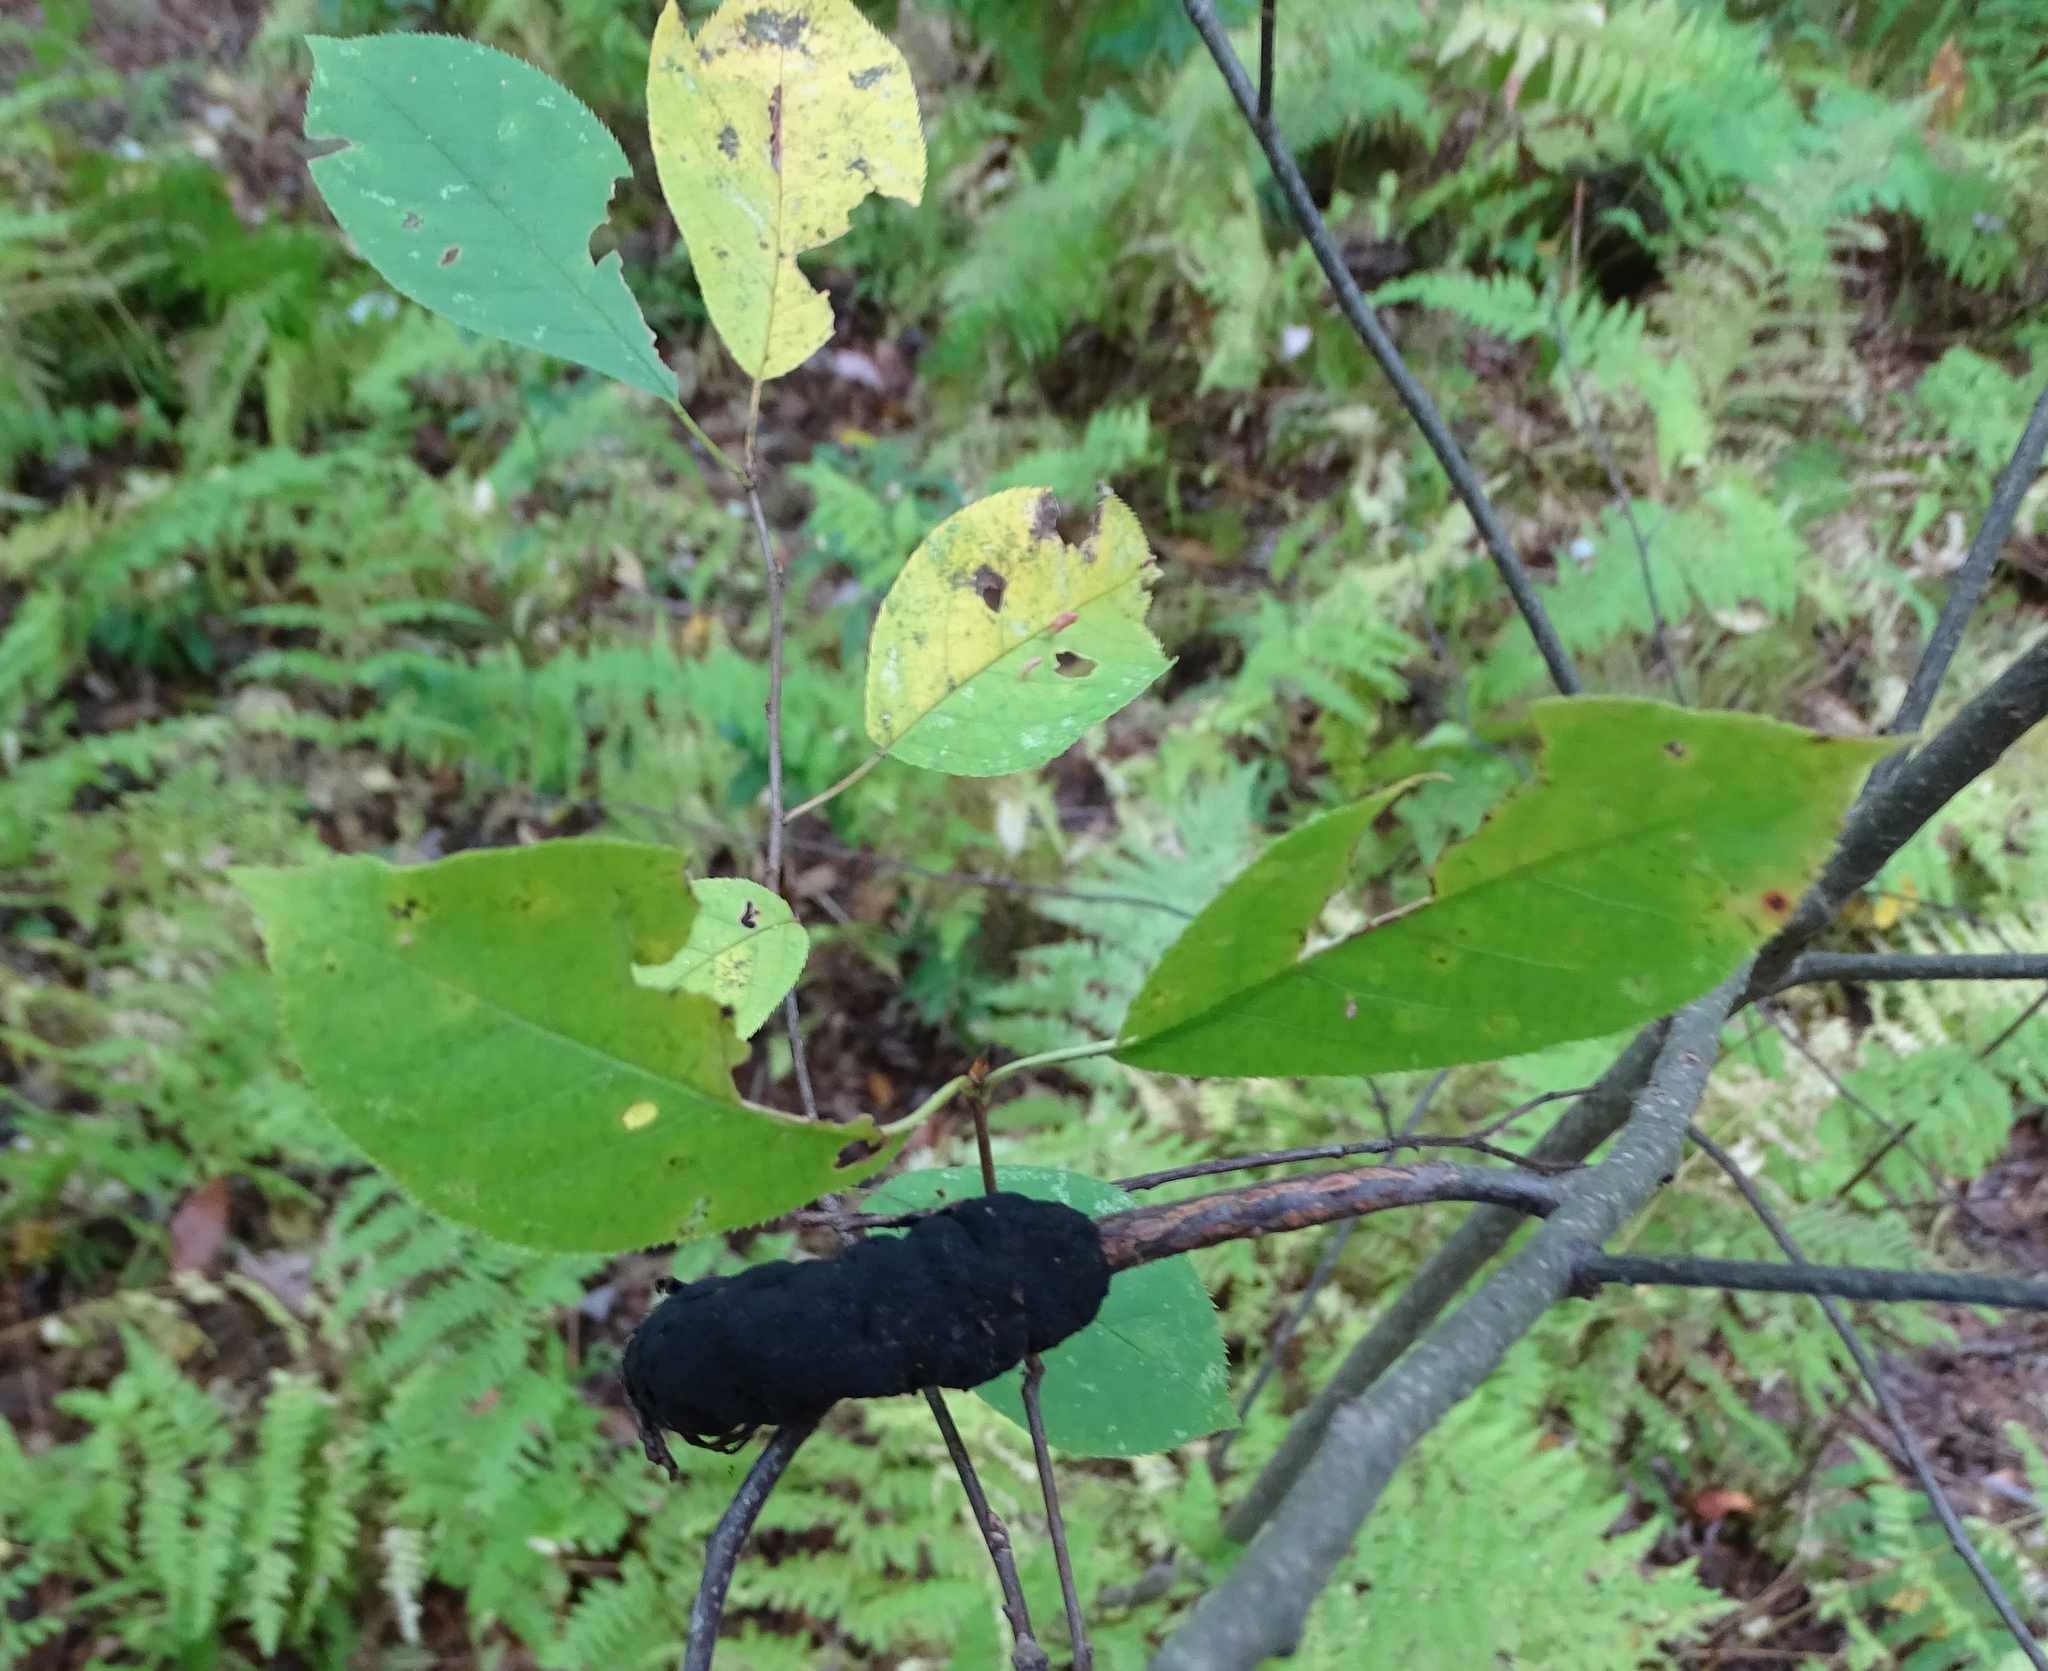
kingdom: Fungi
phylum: Ascomycota
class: Dothideomycetes
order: Venturiales
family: Venturiaceae
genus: Apiosporina
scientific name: Apiosporina morbosa
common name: Black knot
